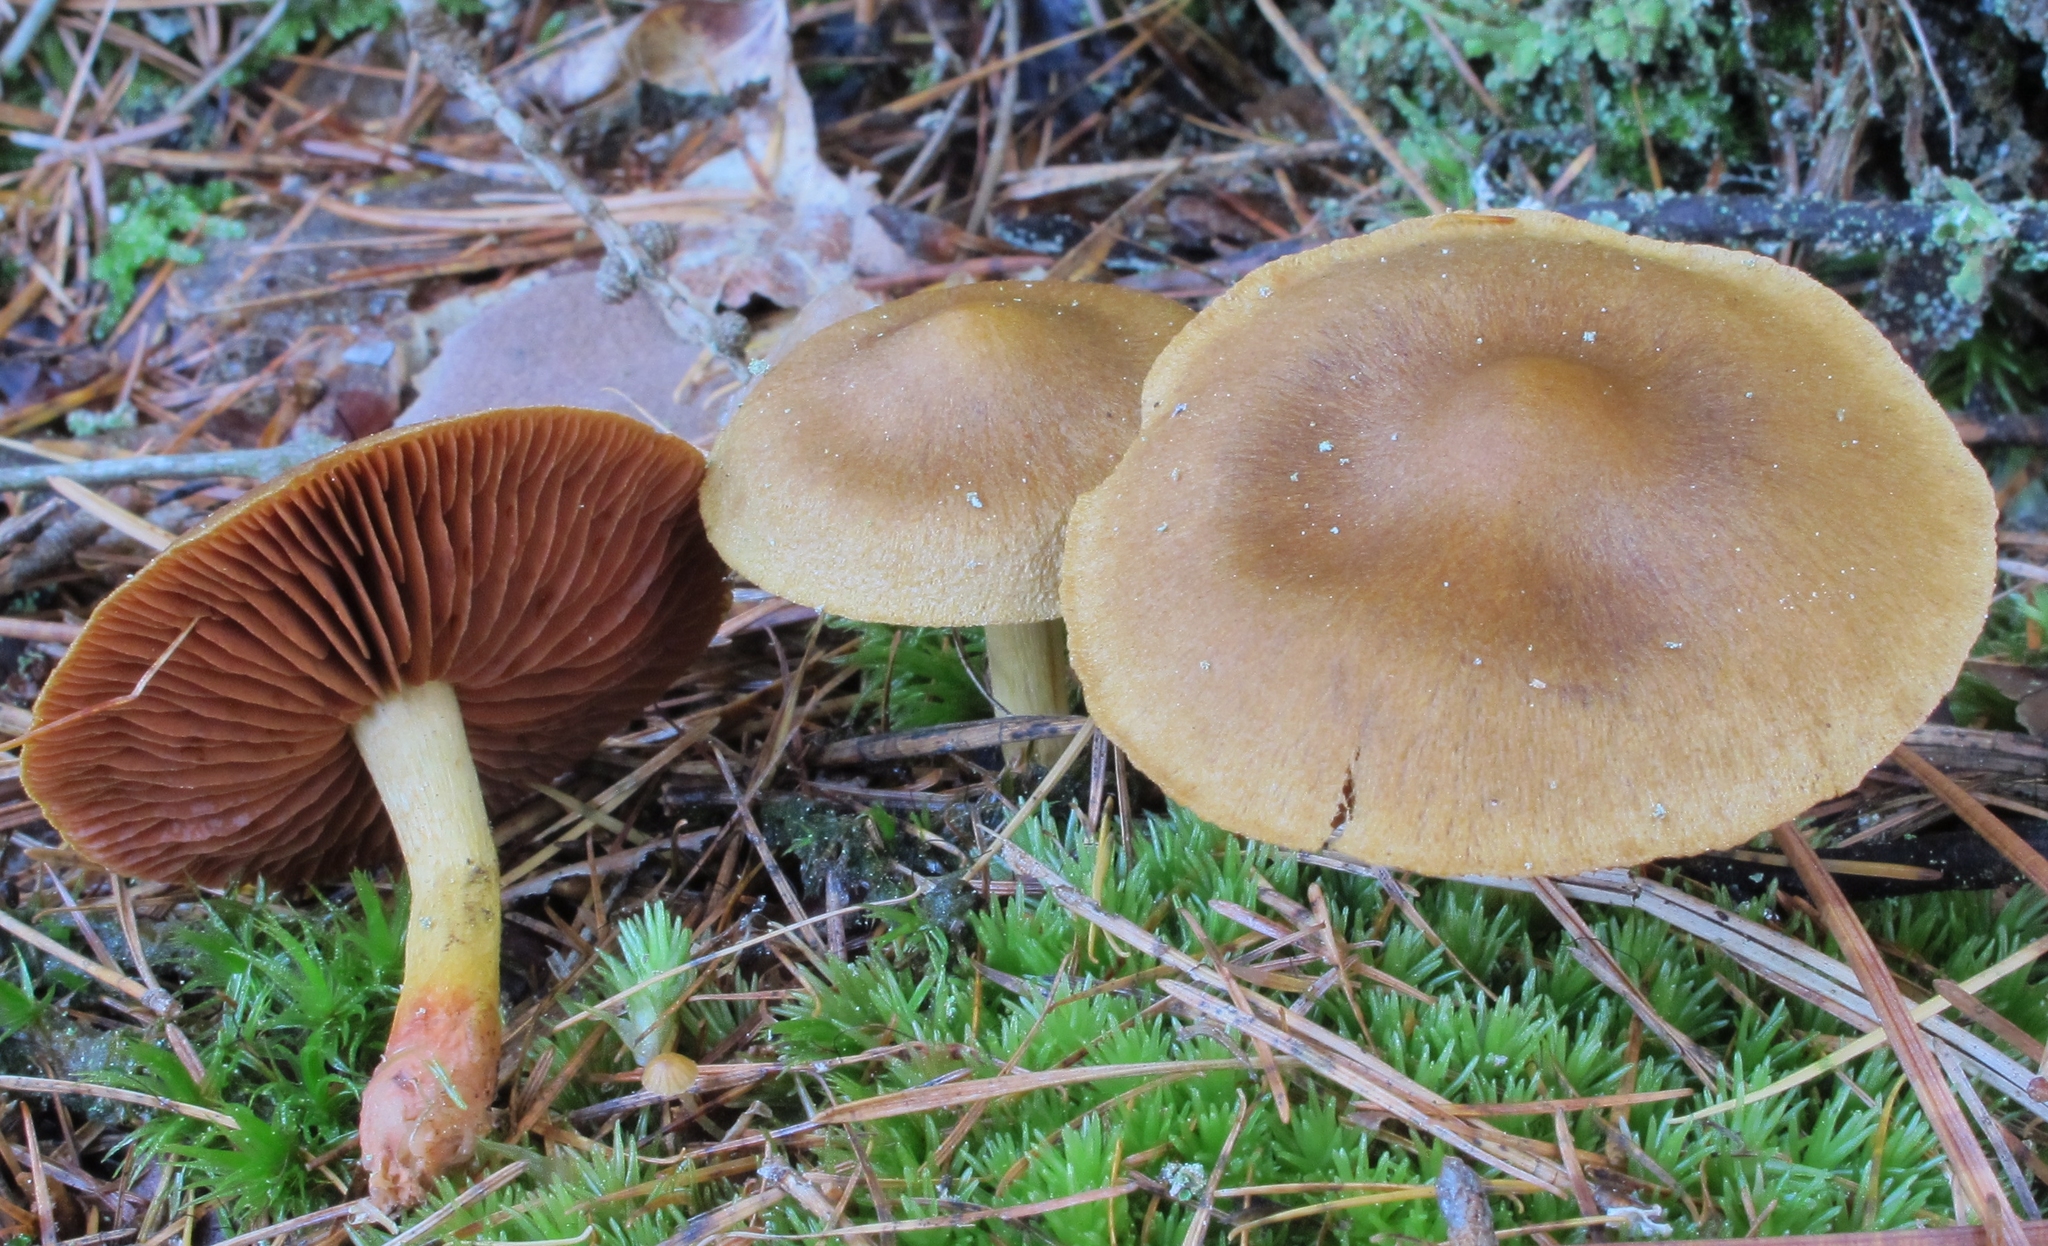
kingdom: Fungi
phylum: Basidiomycota
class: Agaricomycetes
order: Agaricales
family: Cortinariaceae
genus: Cortinarius
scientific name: Cortinarius semisanguineus
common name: Surprise webcap
